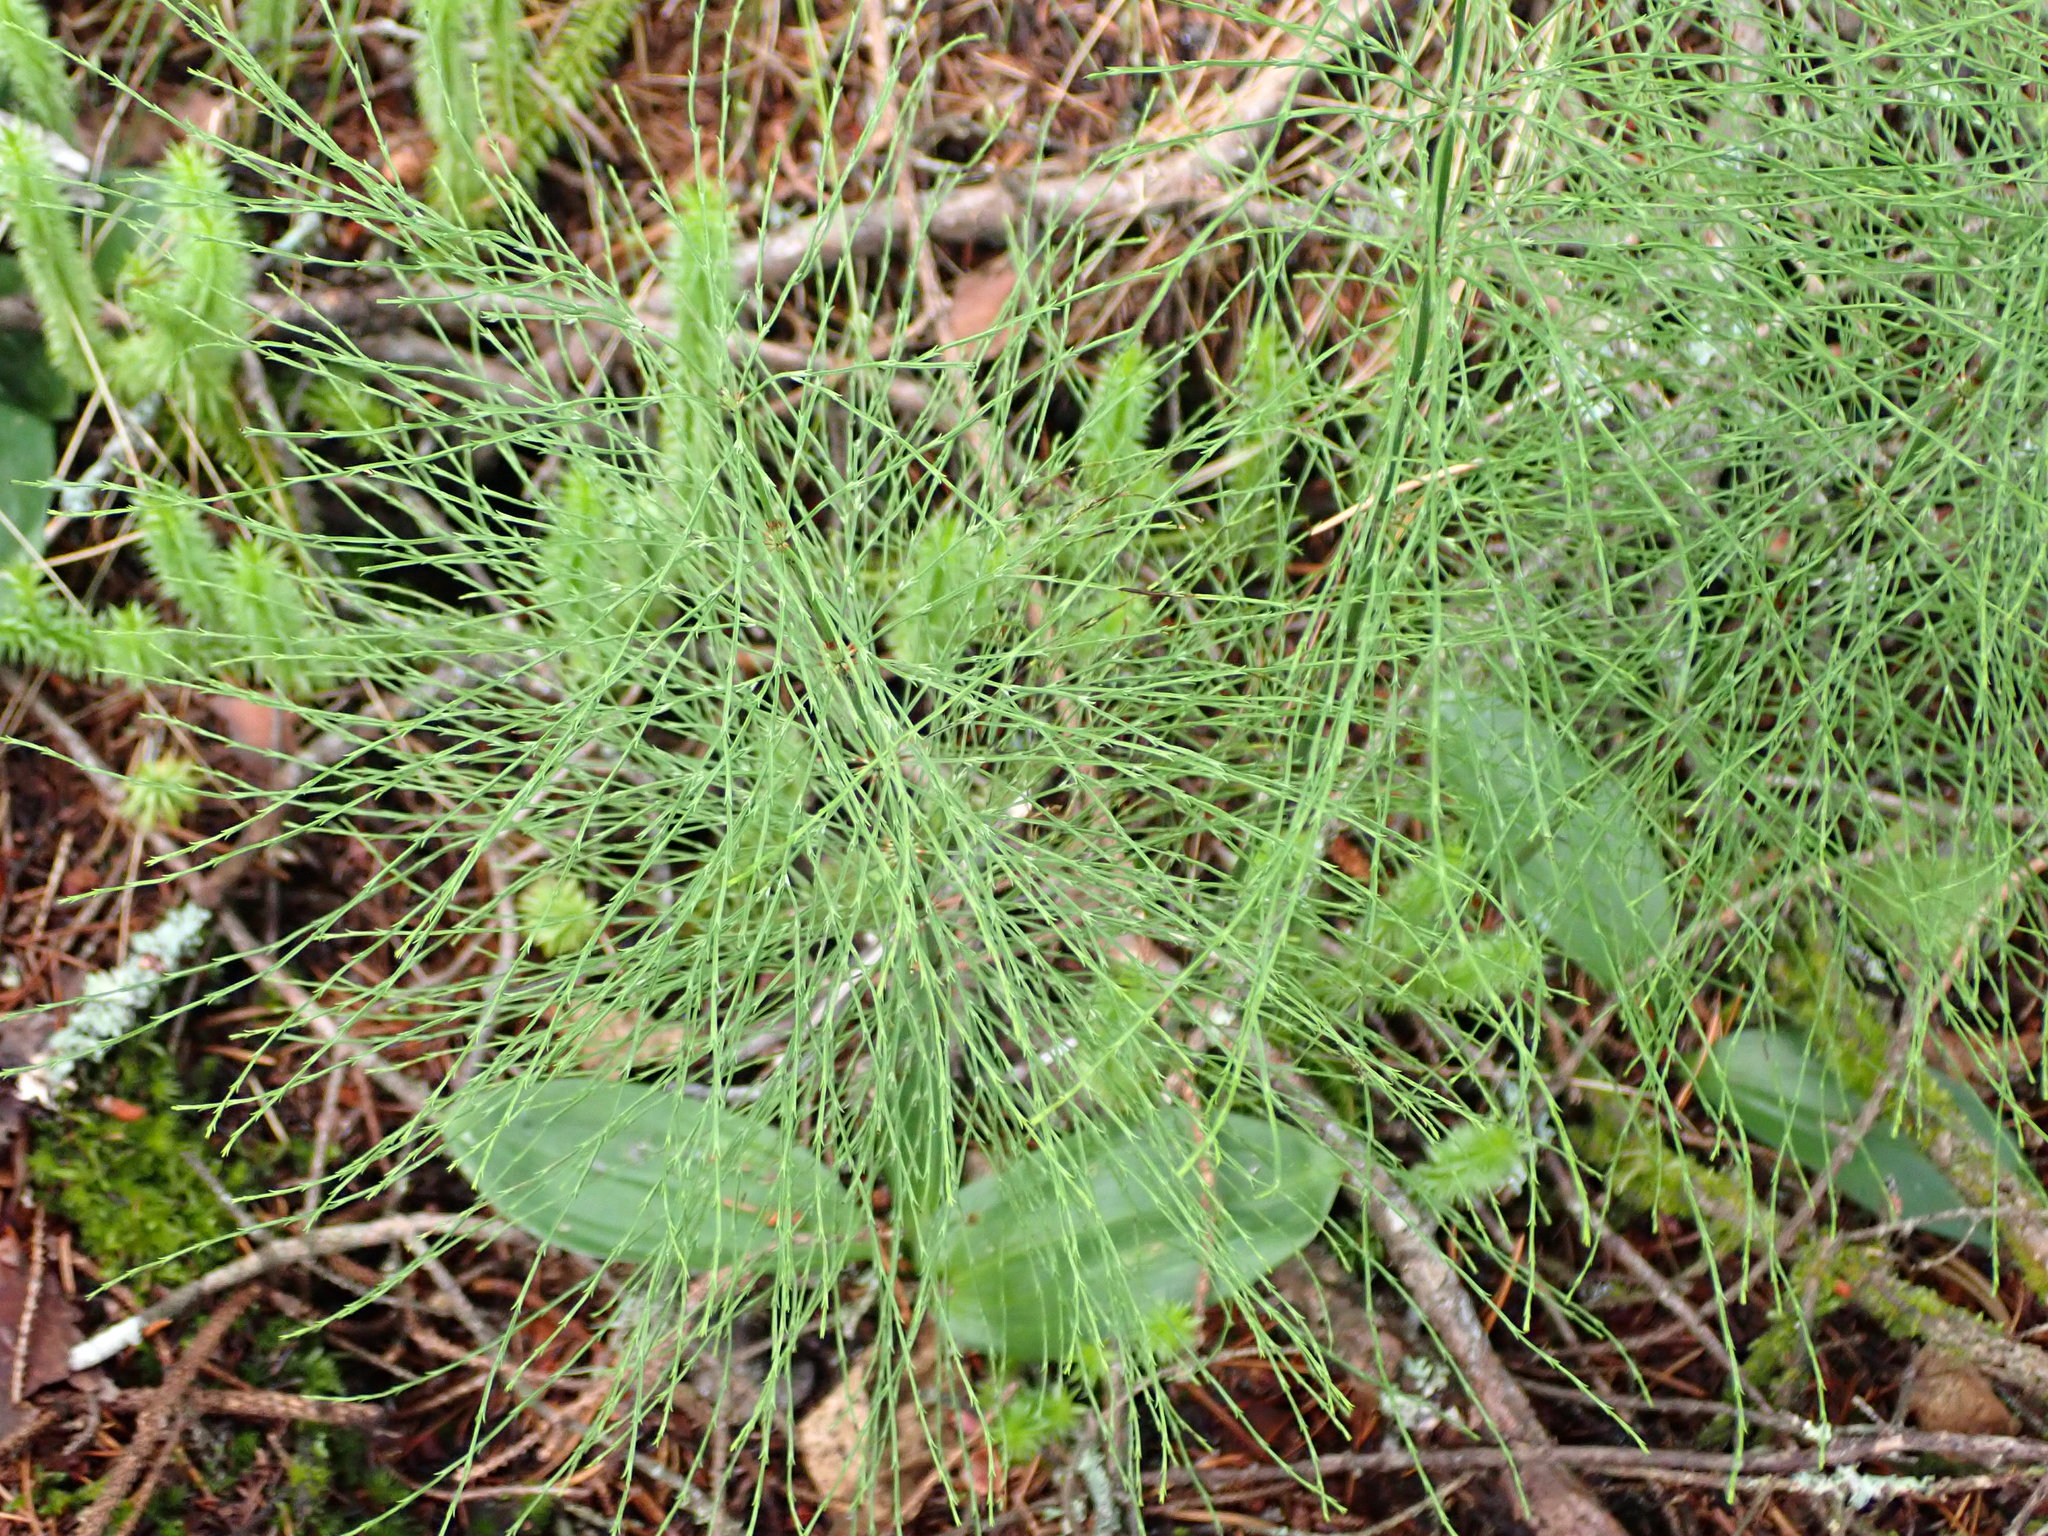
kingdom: Plantae
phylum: Tracheophyta
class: Polypodiopsida
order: Equisetales
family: Equisetaceae
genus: Equisetum
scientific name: Equisetum sylvaticum
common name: Wood horsetail
